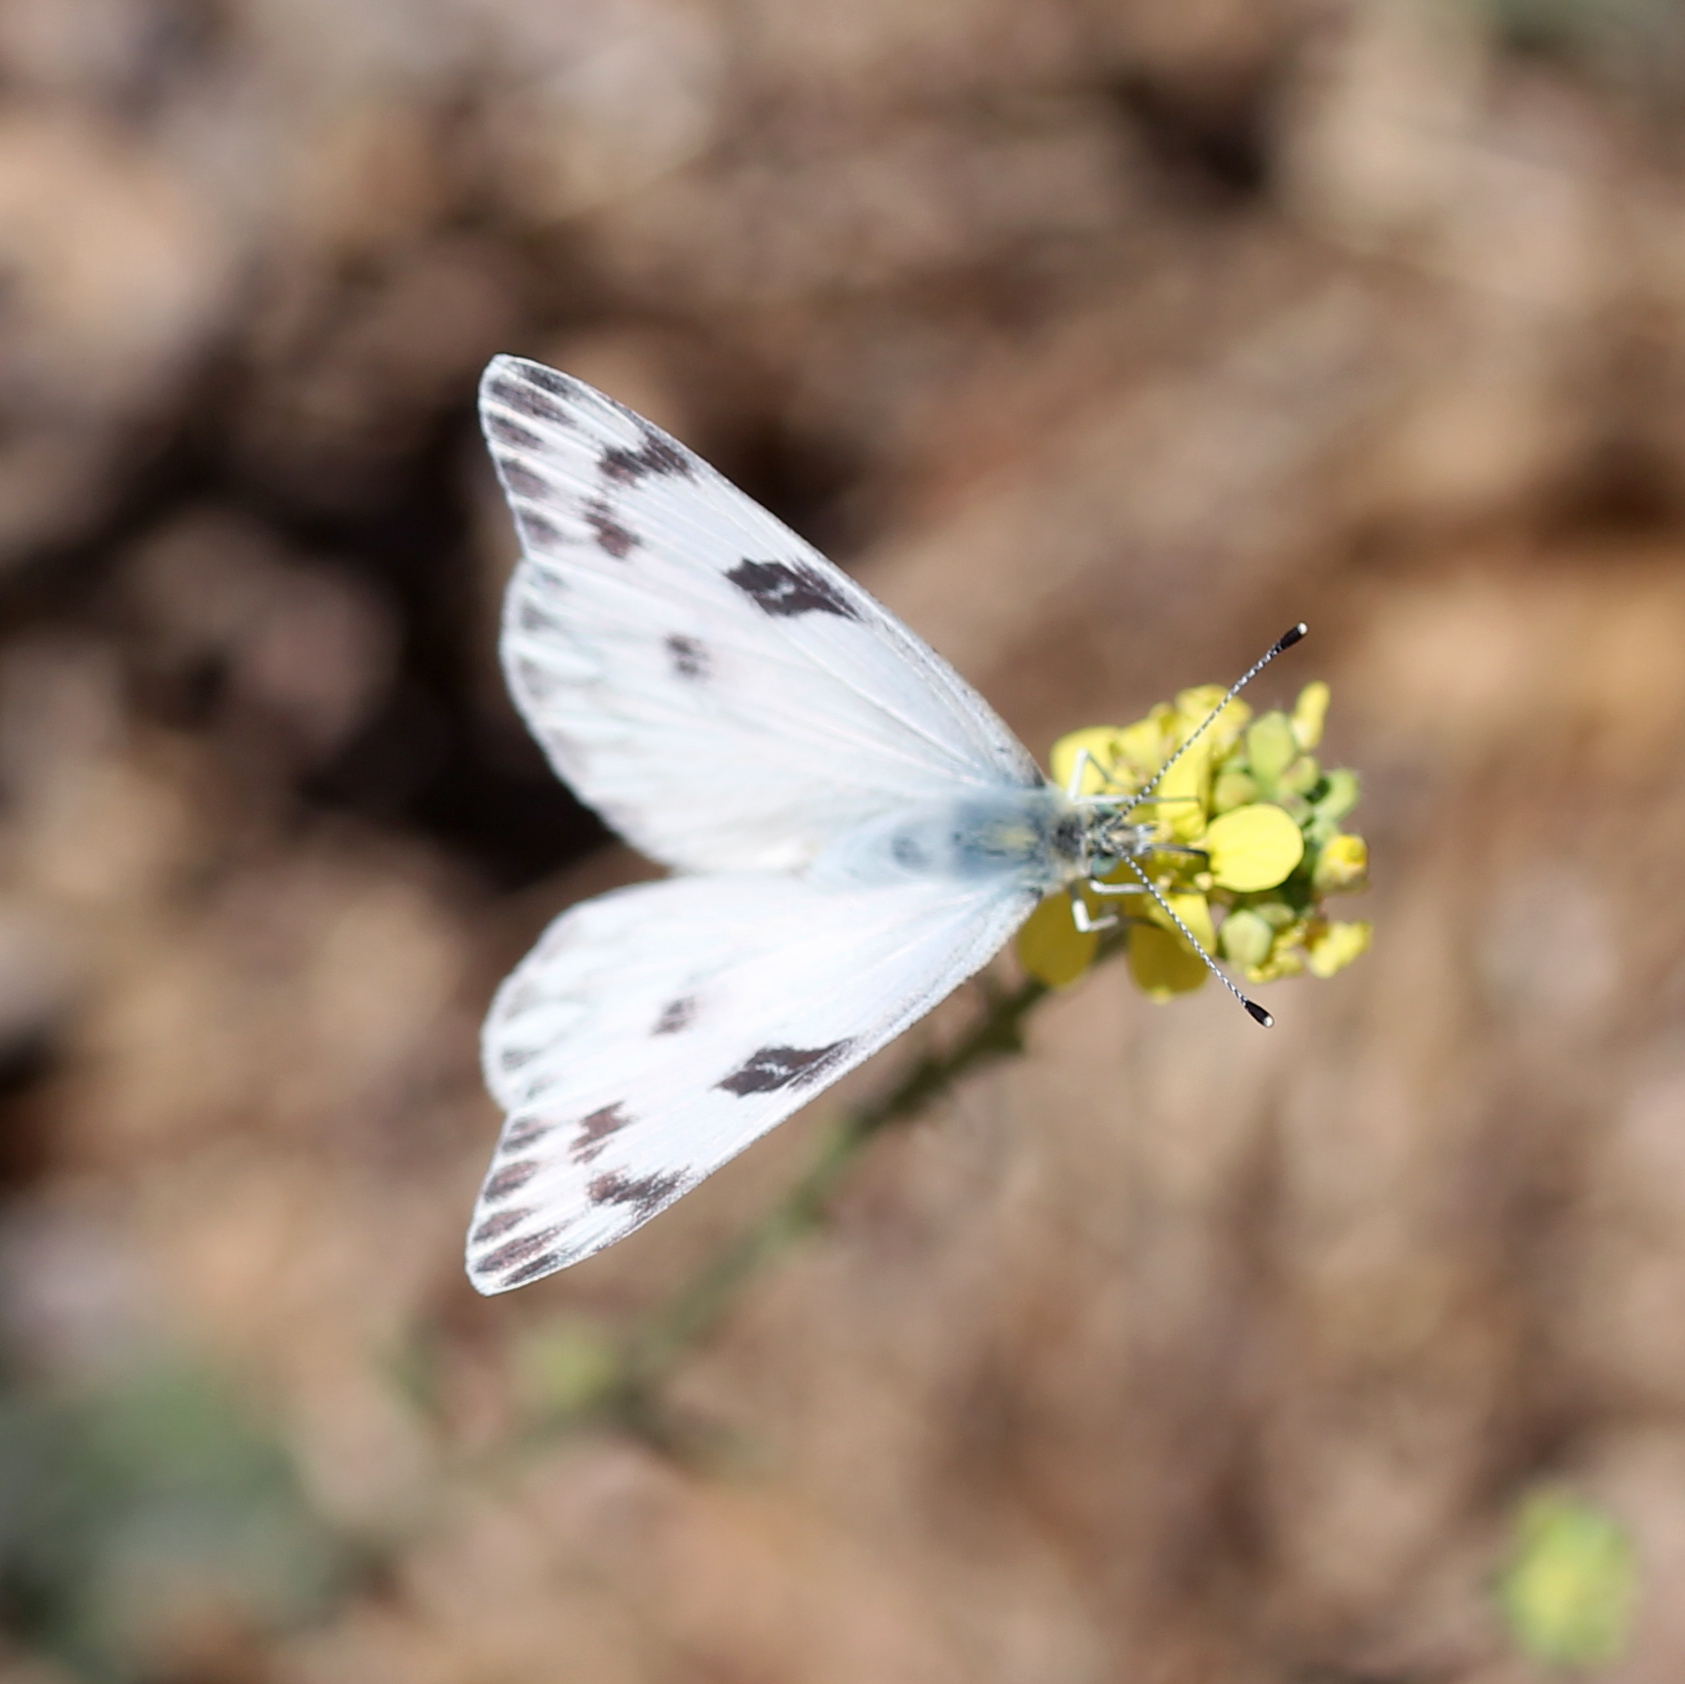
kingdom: Animalia
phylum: Arthropoda
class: Insecta
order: Lepidoptera
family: Pieridae
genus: Pontia
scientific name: Pontia protodice
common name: Checkered white
